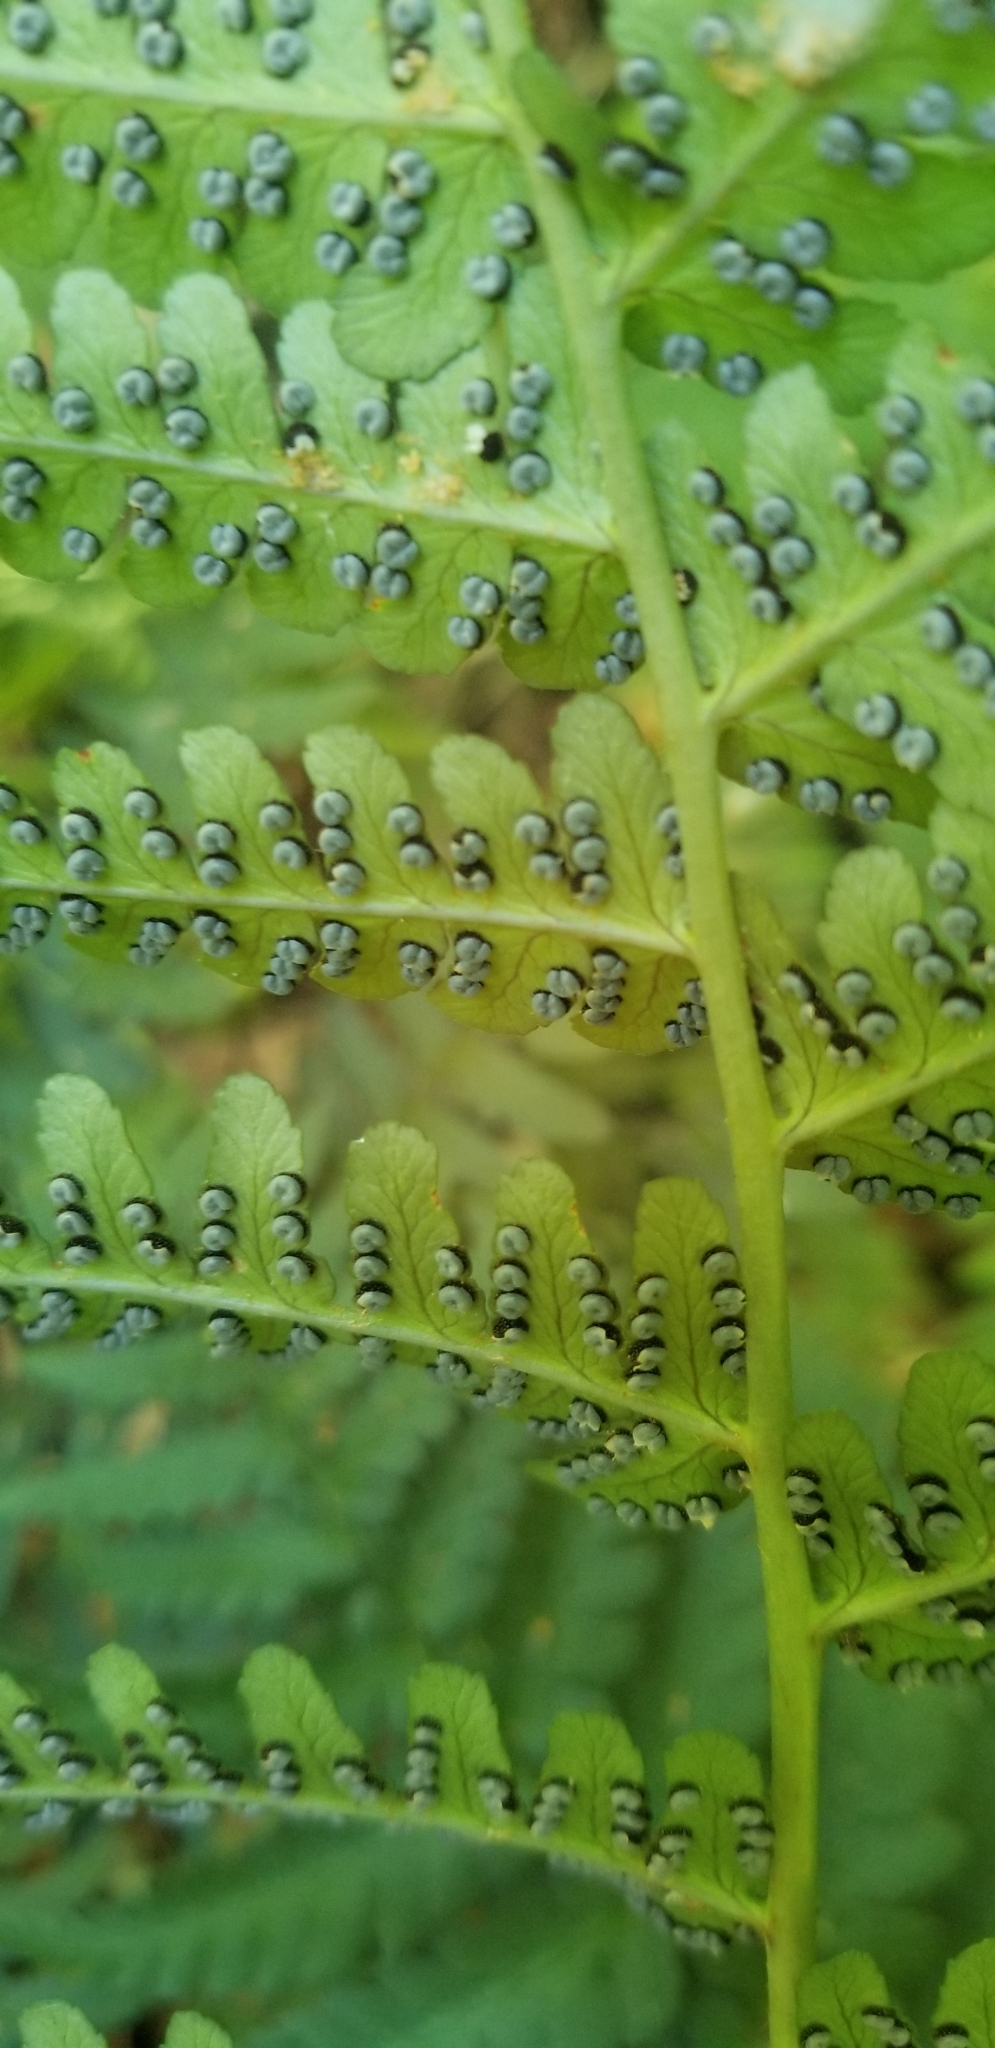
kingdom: Plantae
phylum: Tracheophyta
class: Polypodiopsida
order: Polypodiales
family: Dryopteridaceae
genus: Dryopteris
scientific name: Dryopteris marginalis
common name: Marginal wood fern
